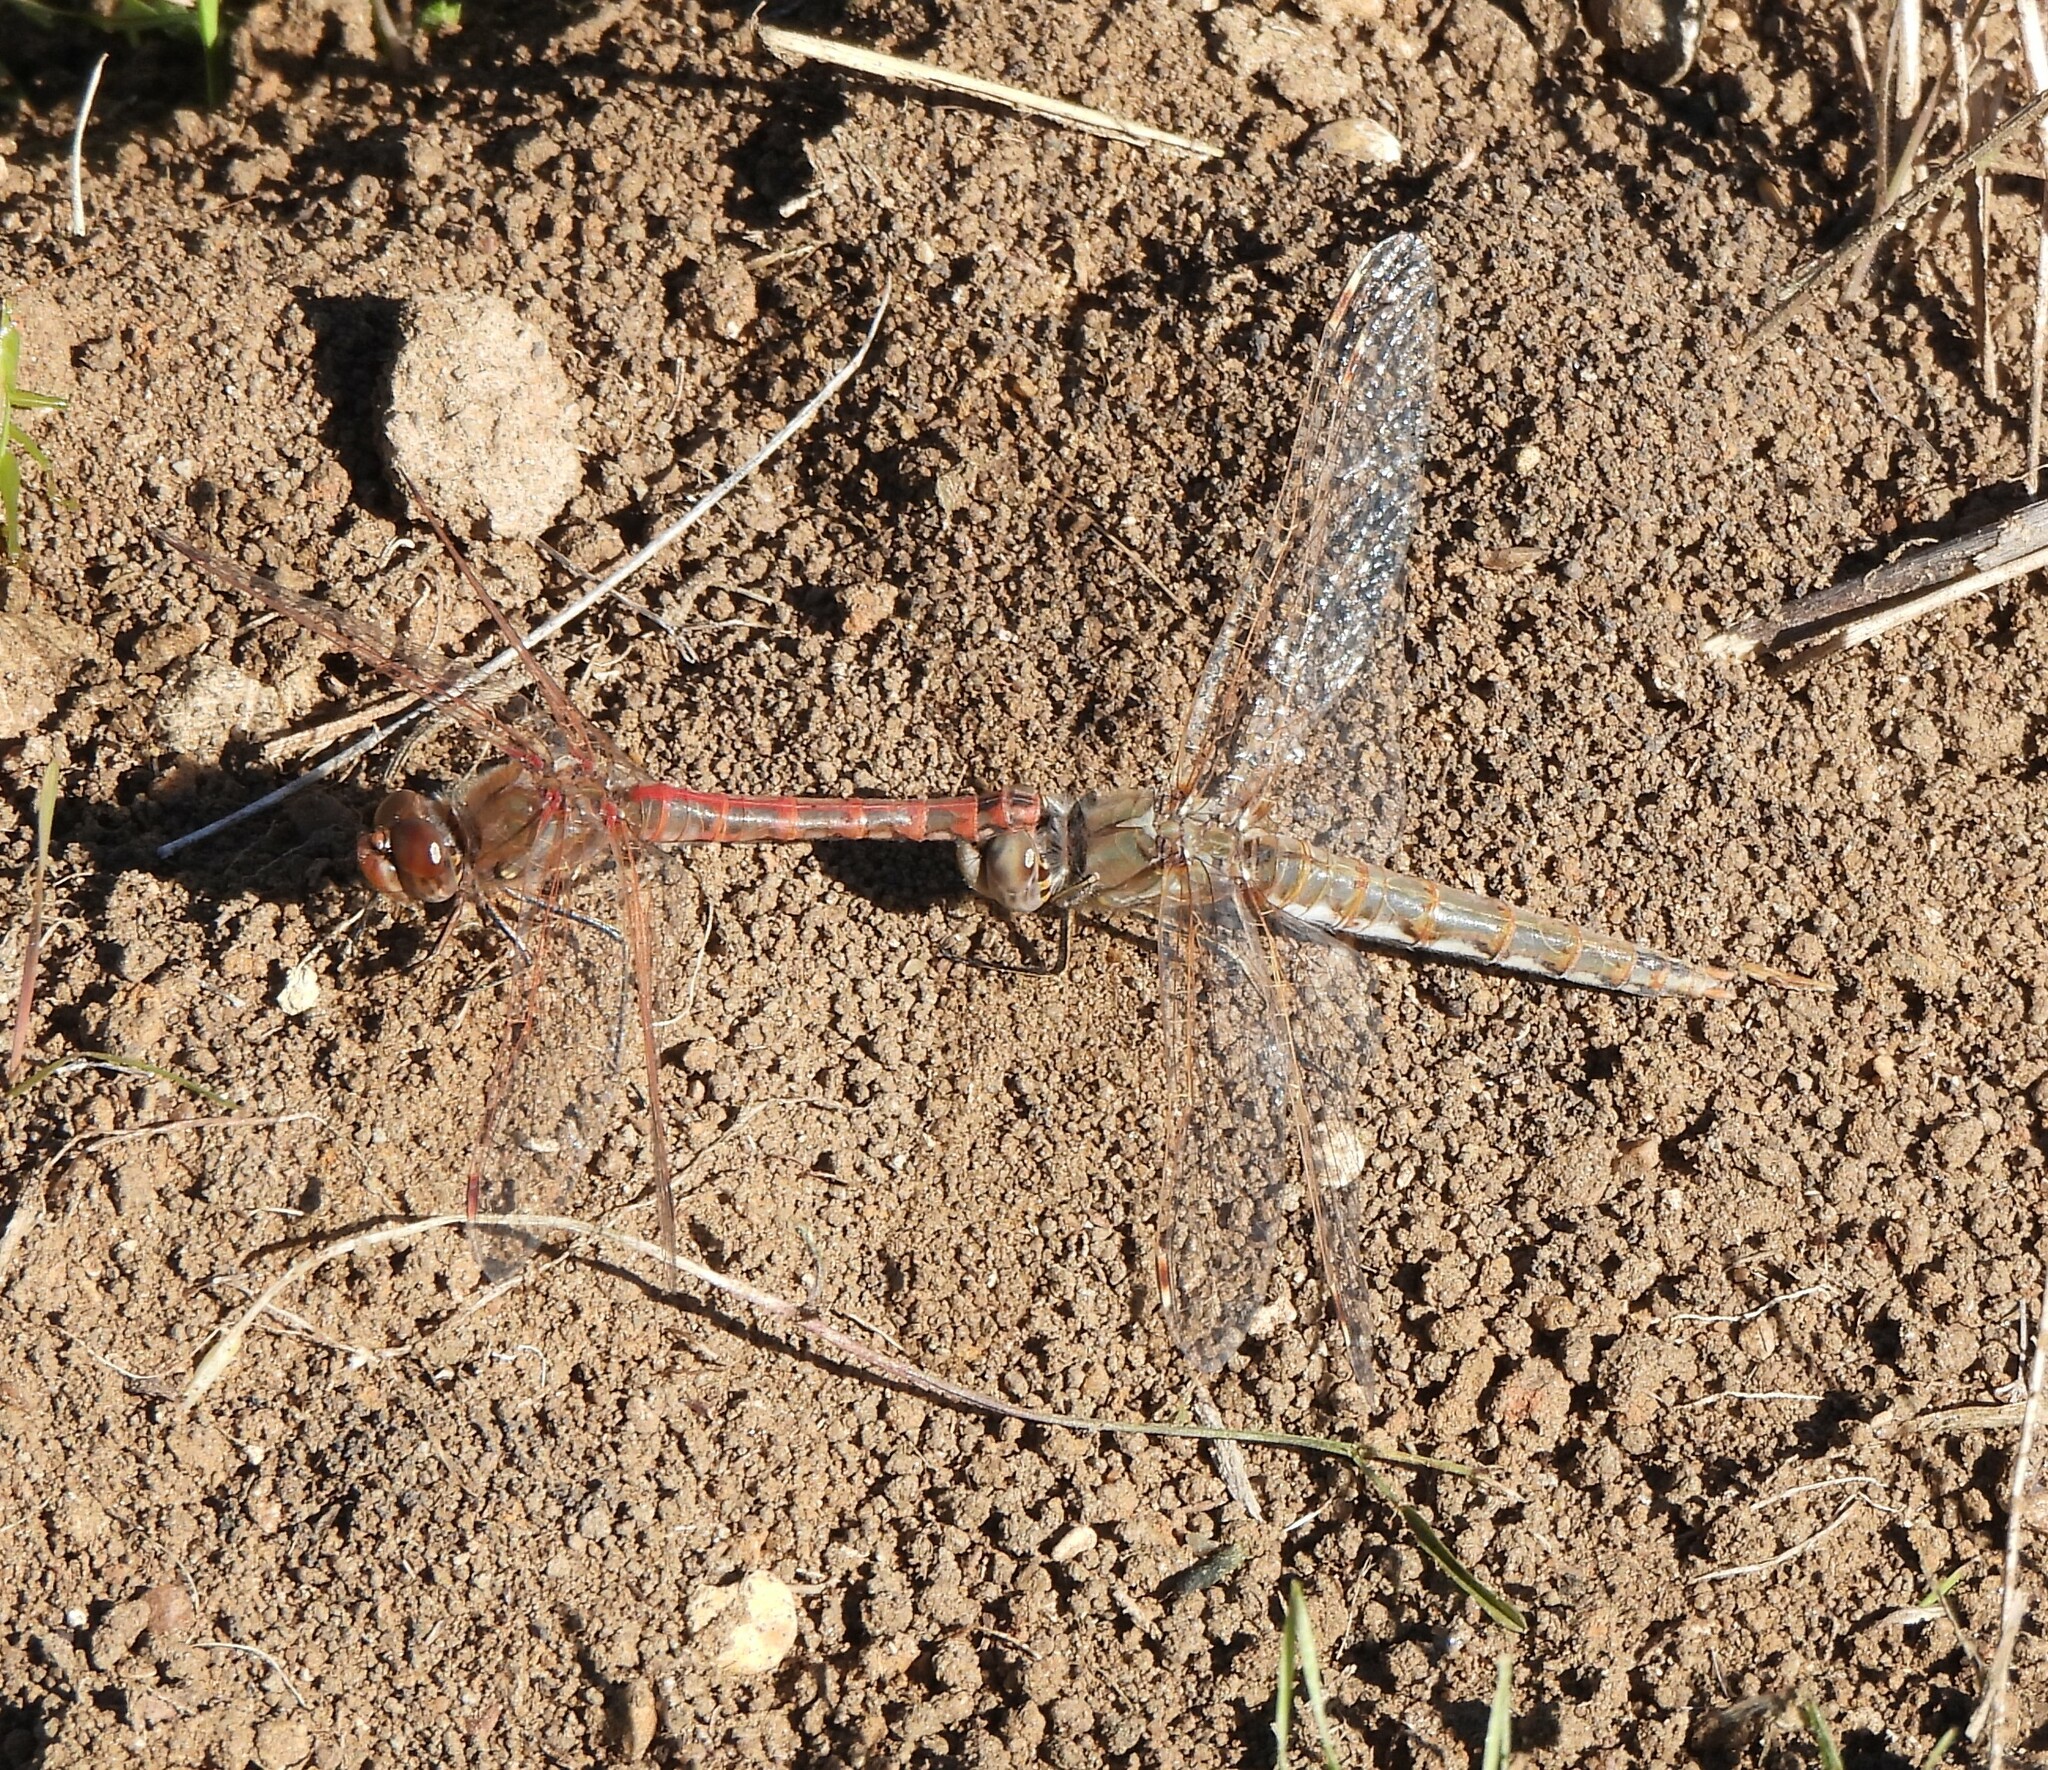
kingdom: Animalia
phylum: Arthropoda
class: Insecta
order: Odonata
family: Libellulidae
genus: Sympetrum
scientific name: Sympetrum corruptum
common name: Variegated meadowhawk
